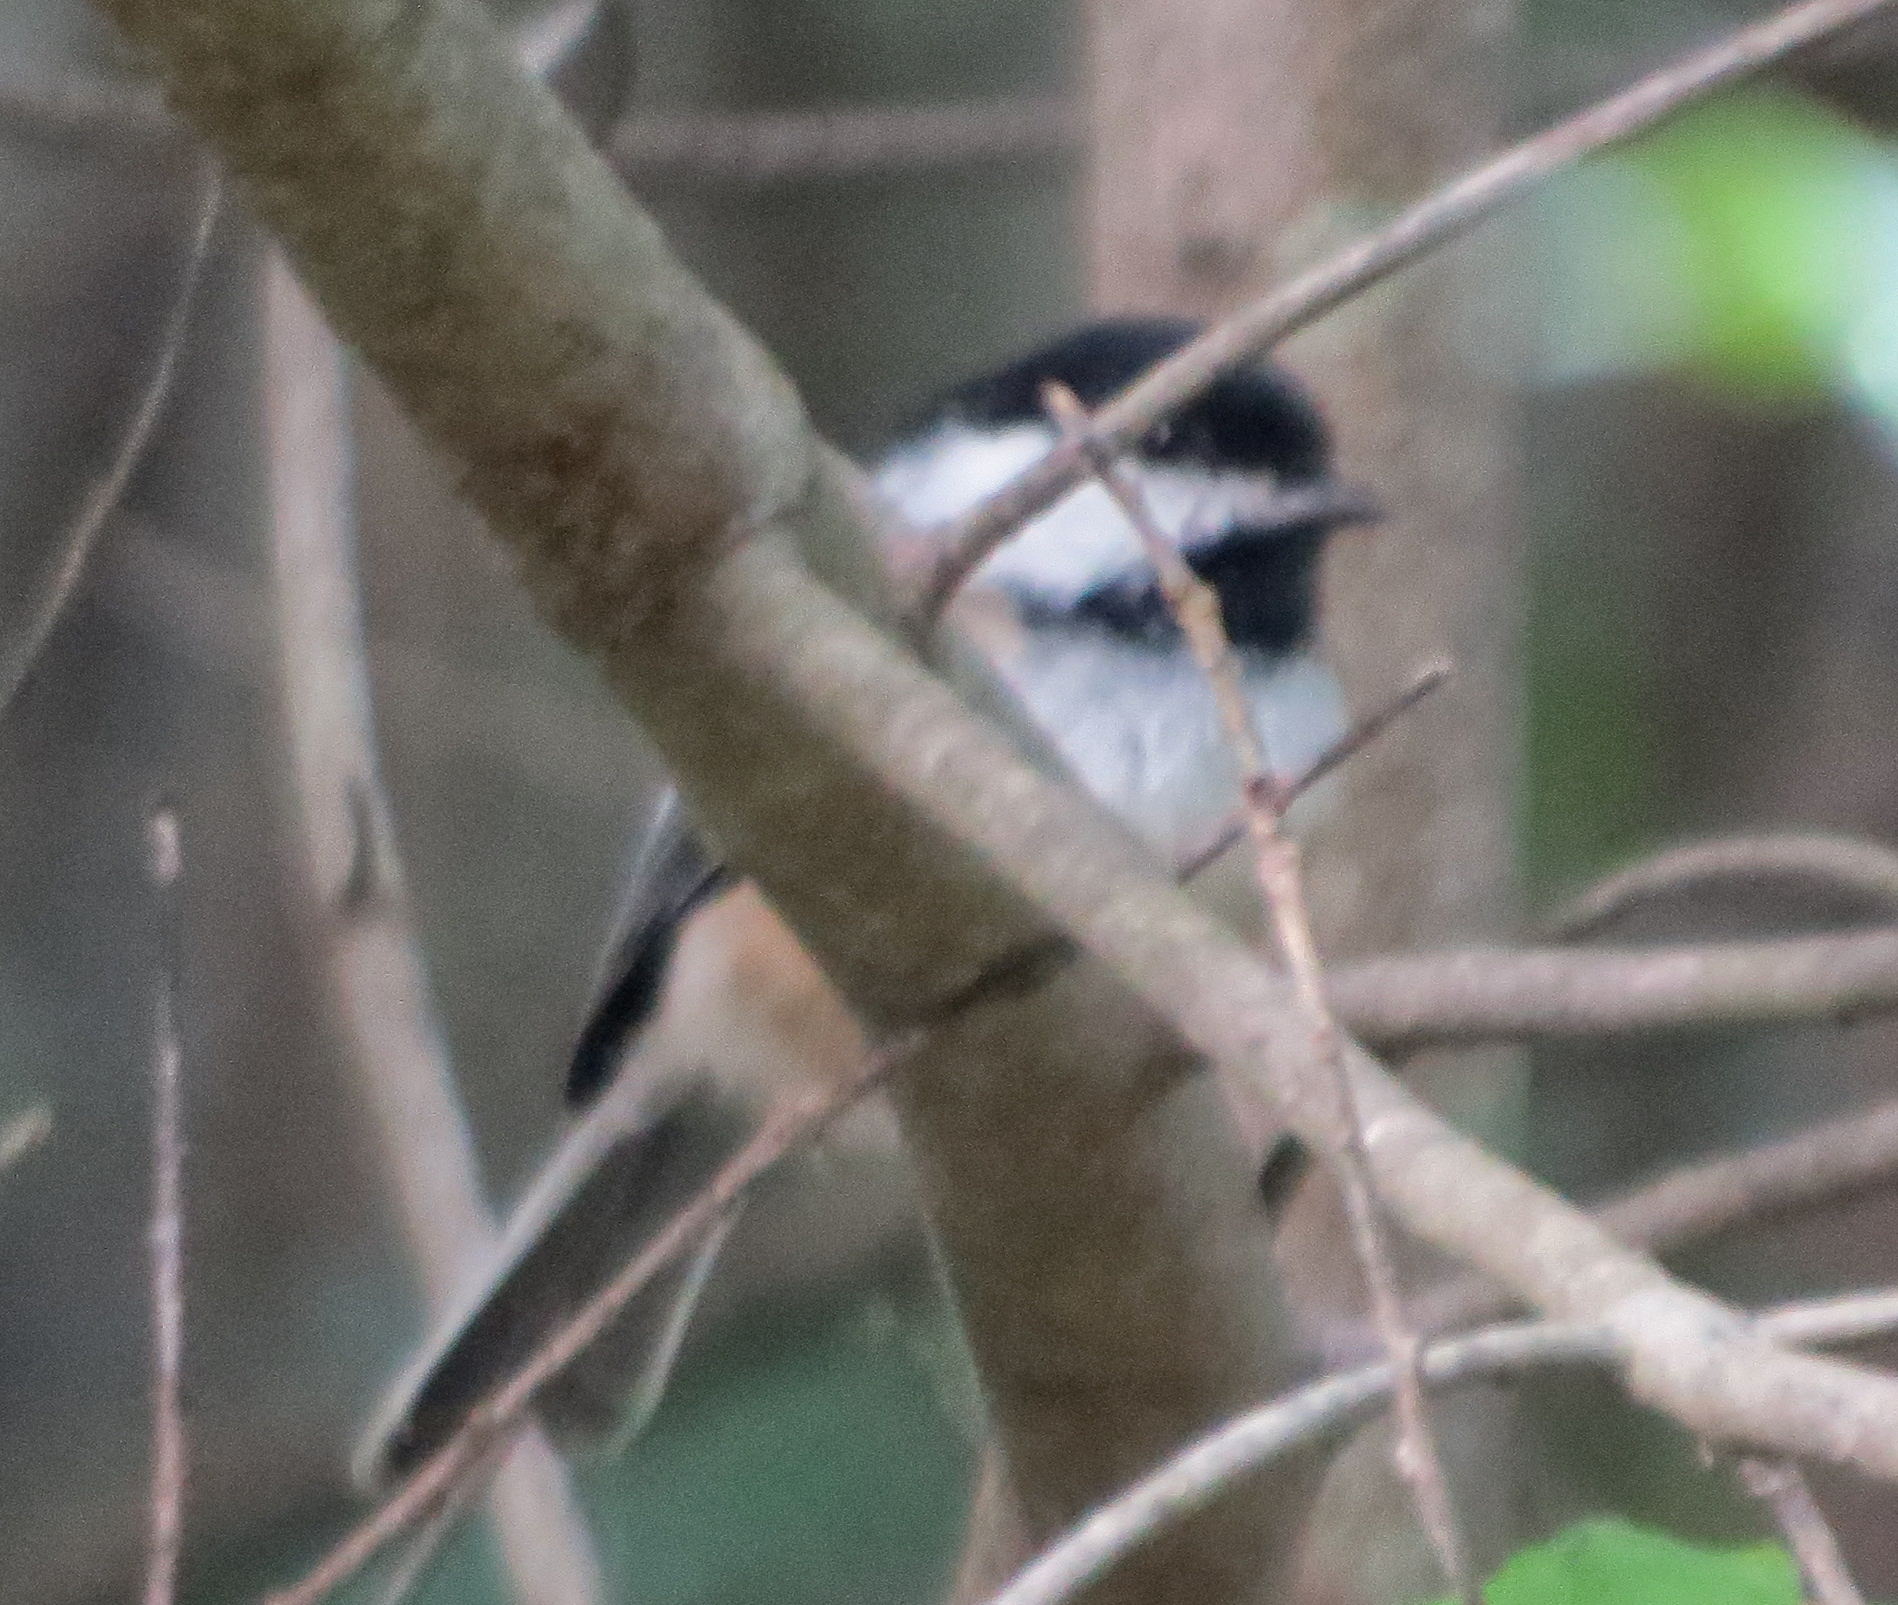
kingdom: Animalia
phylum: Chordata
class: Aves
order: Passeriformes
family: Paridae
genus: Poecile
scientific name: Poecile atricapillus
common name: Black-capped chickadee
